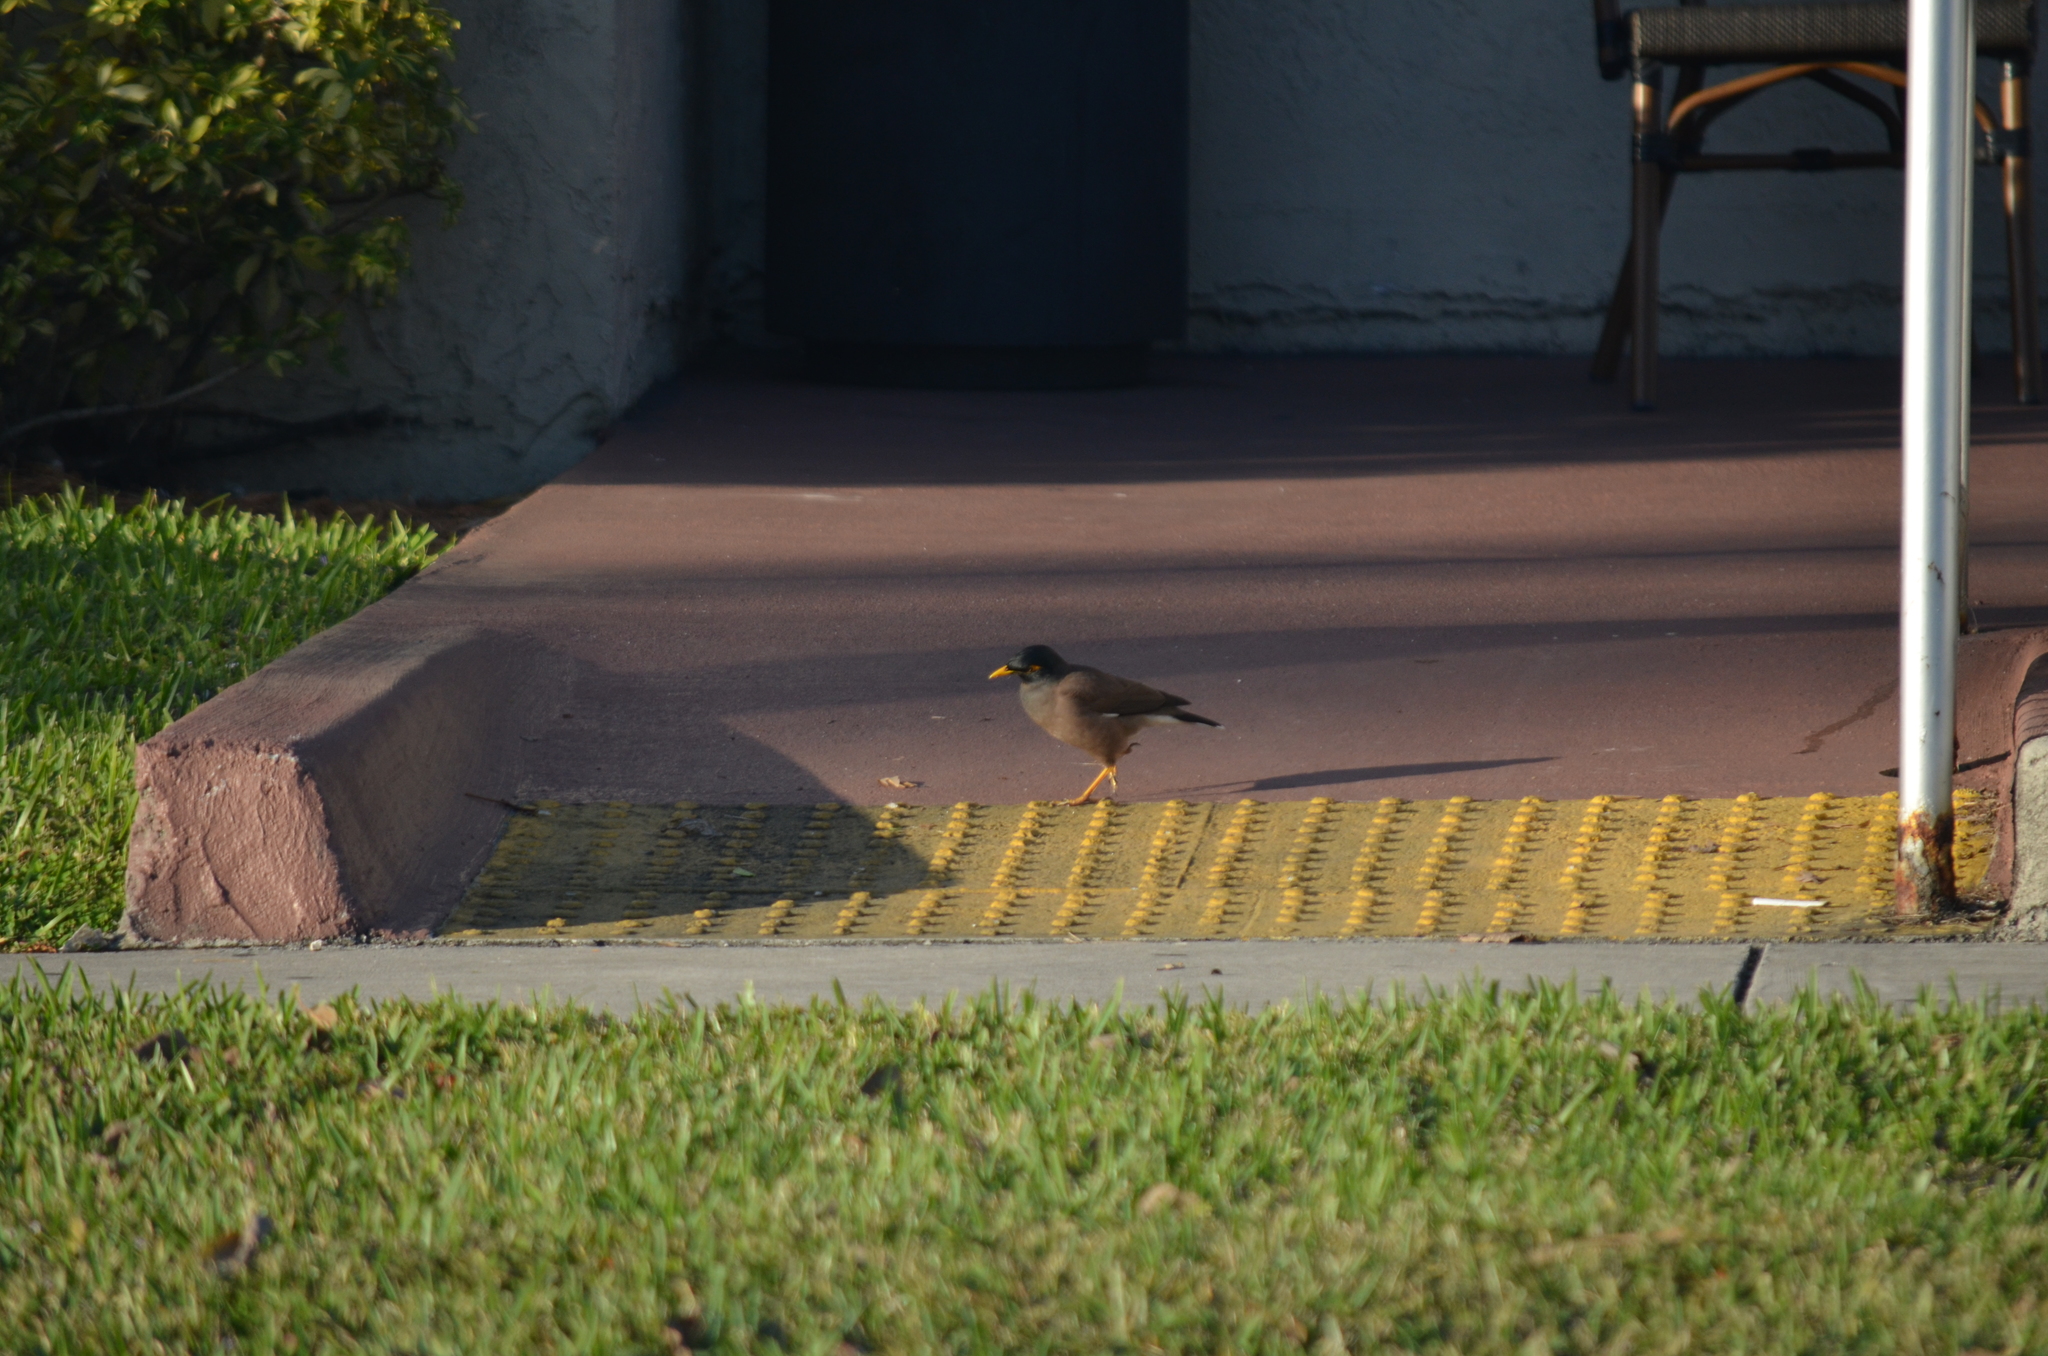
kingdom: Animalia
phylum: Chordata
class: Aves
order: Passeriformes
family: Sturnidae
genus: Acridotheres
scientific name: Acridotheres tristis
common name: Common myna
